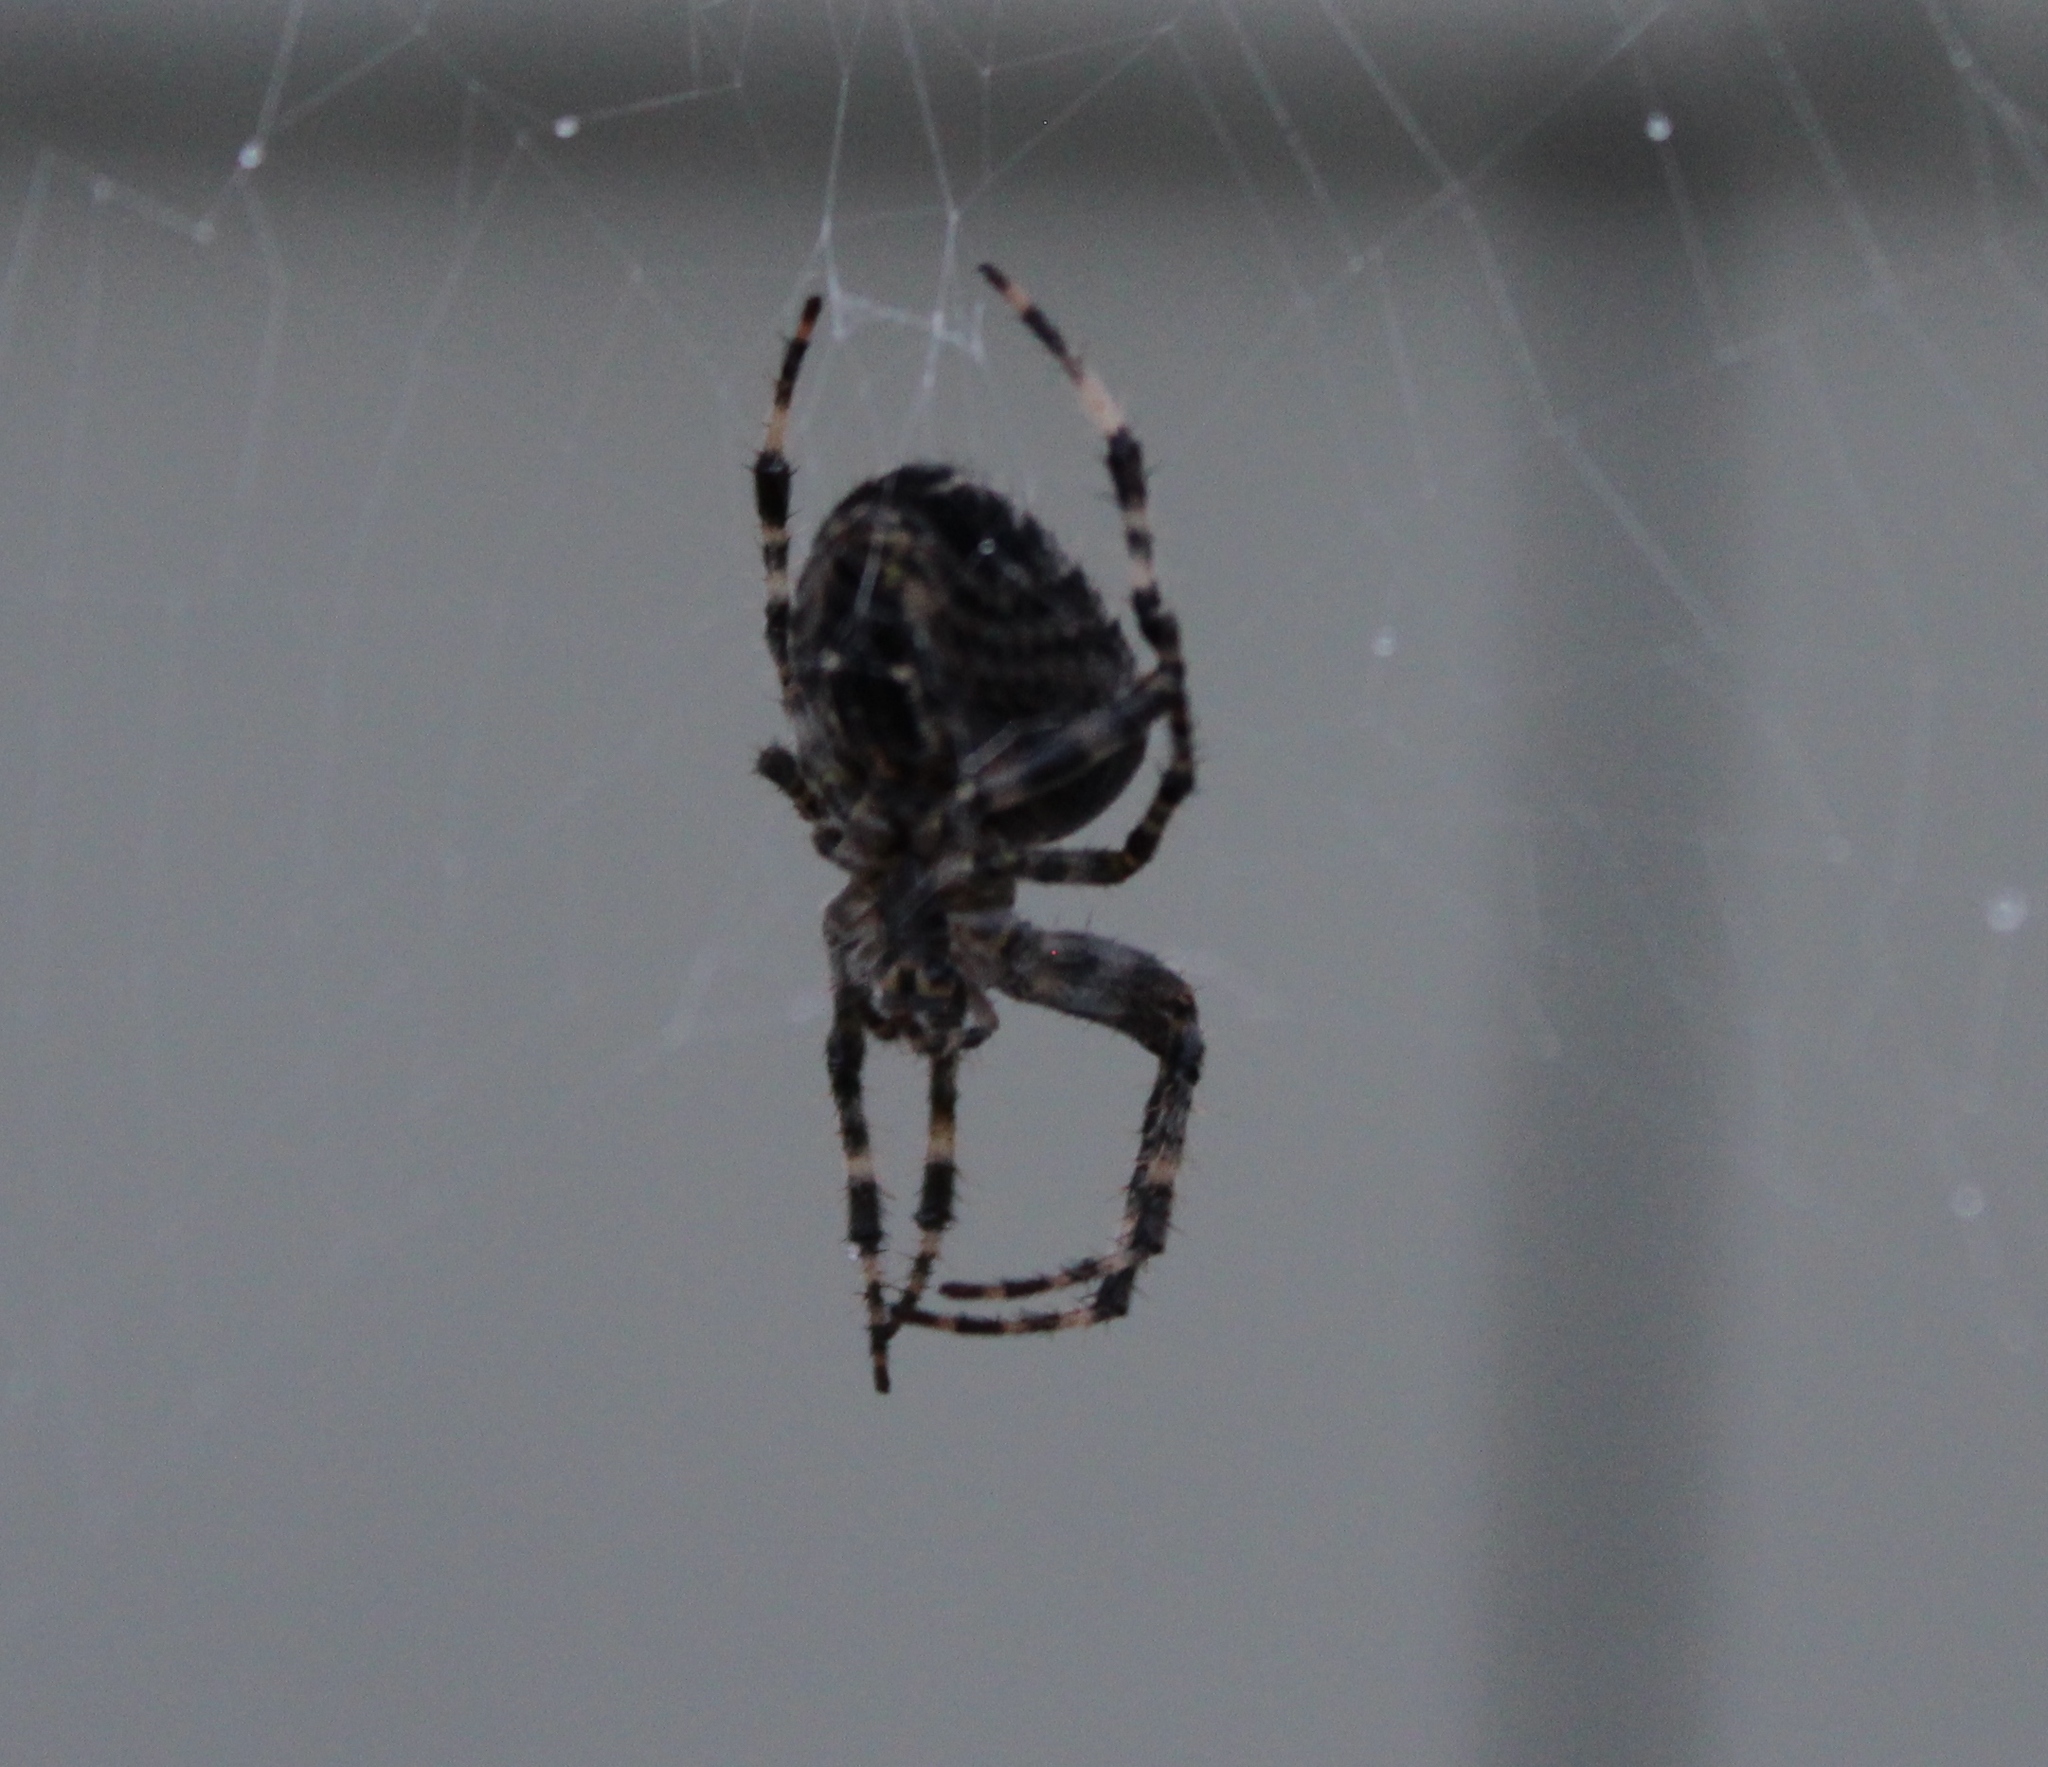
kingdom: Animalia
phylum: Arthropoda
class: Arachnida
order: Araneae
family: Araneidae
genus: Araneus
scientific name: Araneus diadematus
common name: Cross orbweaver
